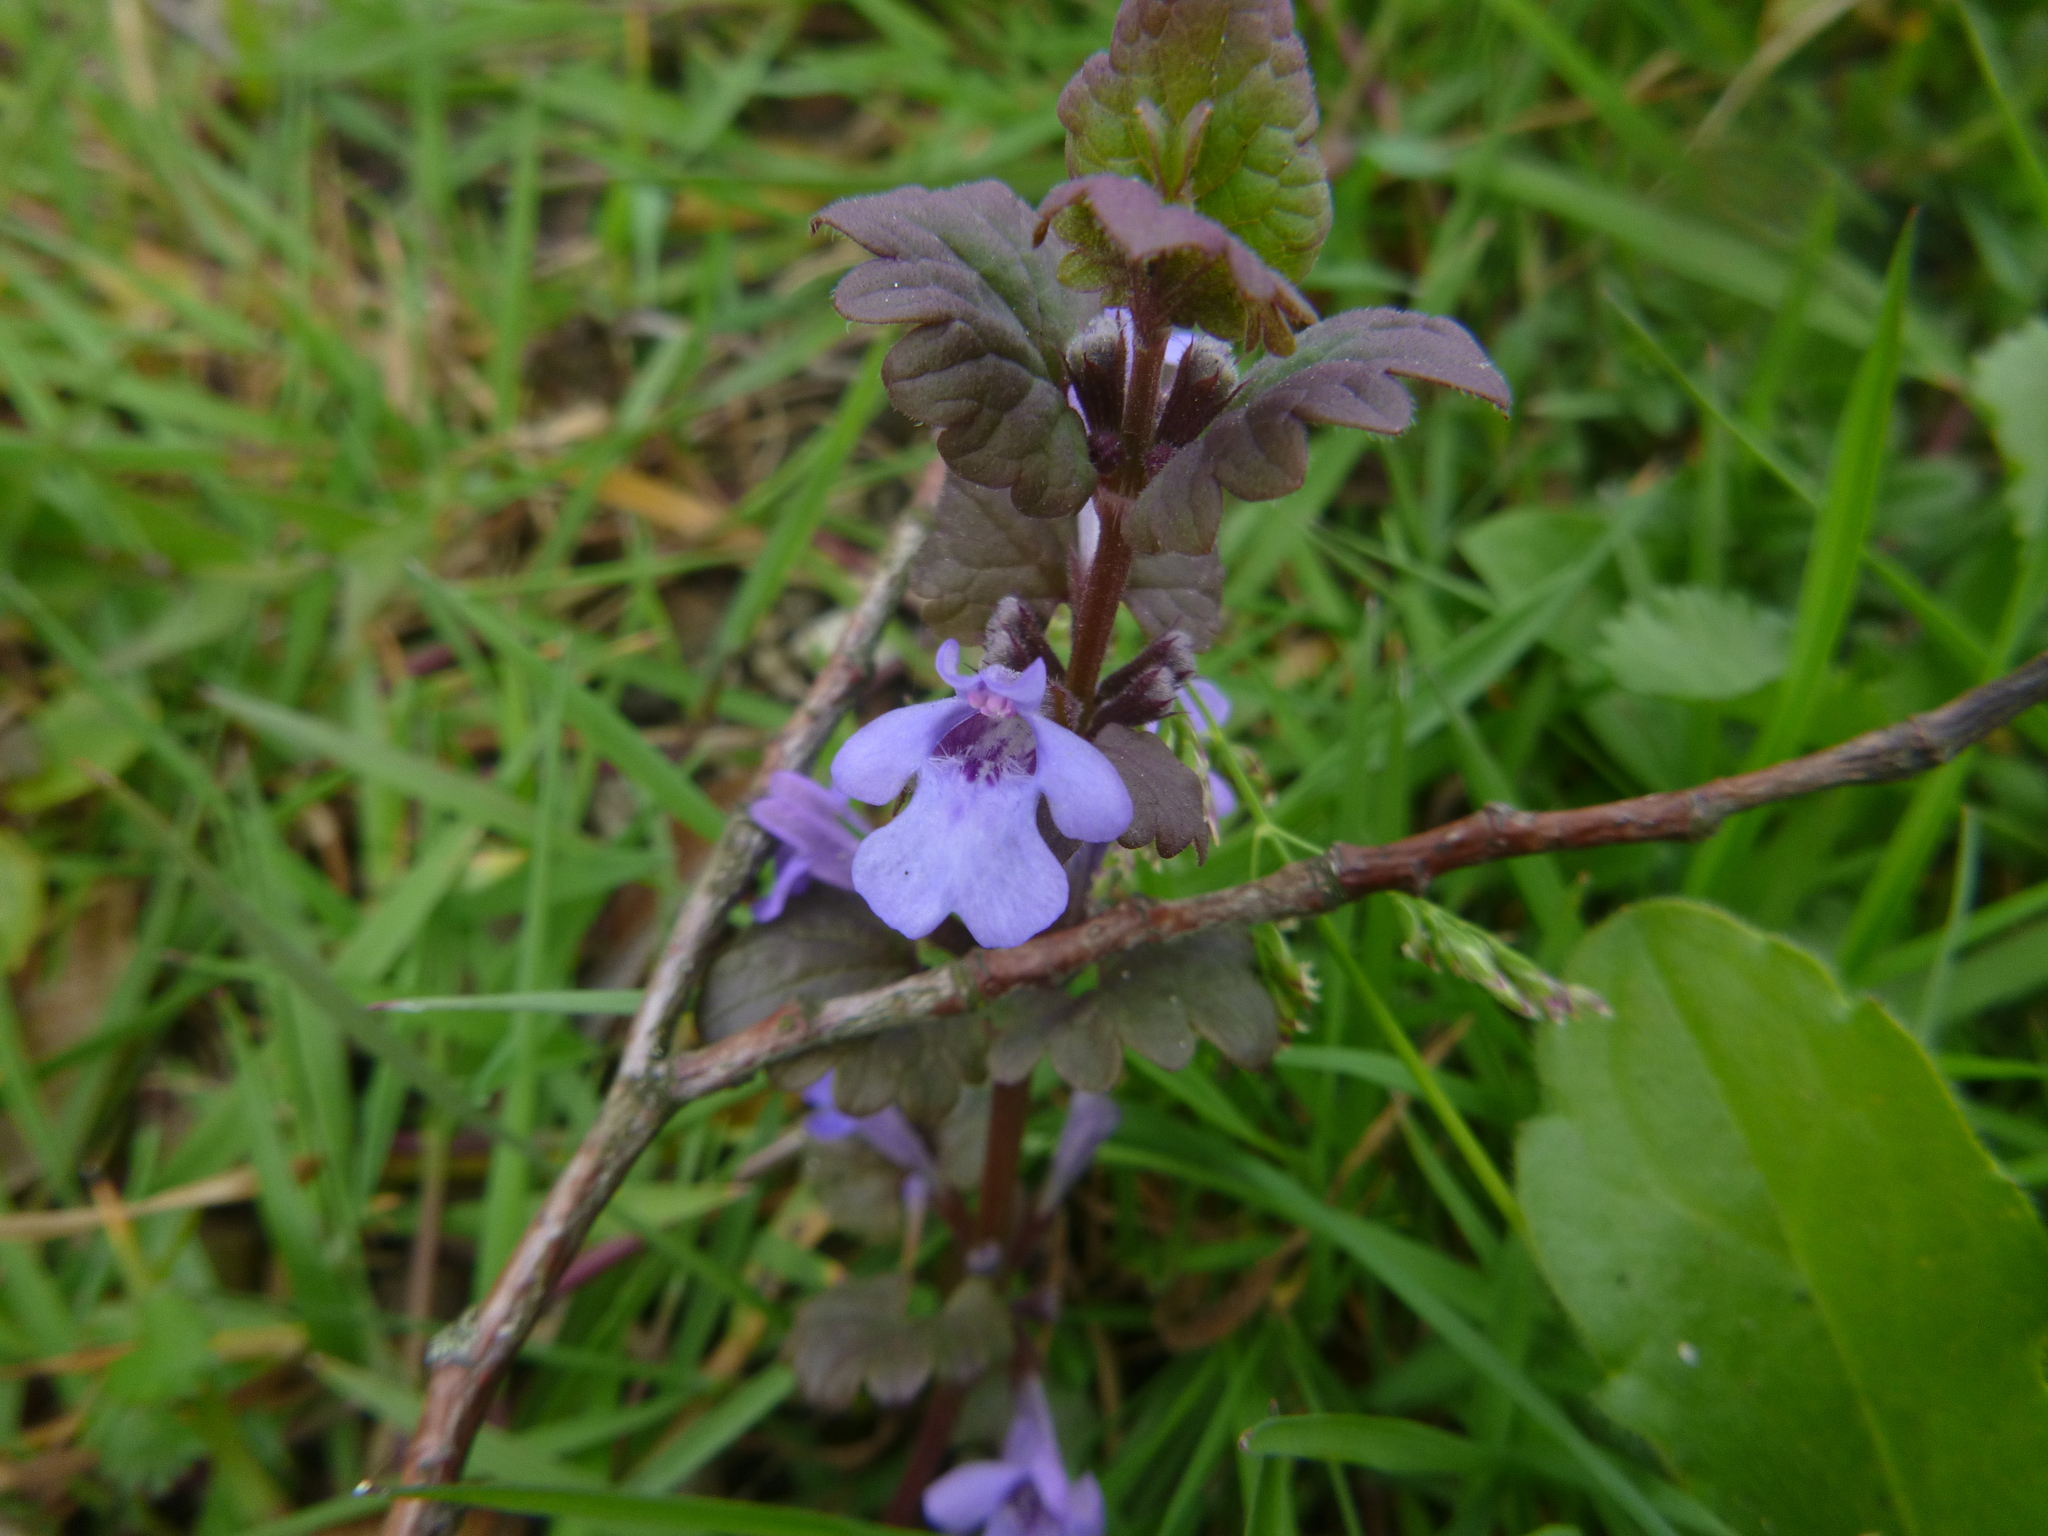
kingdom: Plantae
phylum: Tracheophyta
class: Magnoliopsida
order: Lamiales
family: Lamiaceae
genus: Glechoma
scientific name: Glechoma hederacea
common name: Ground ivy
